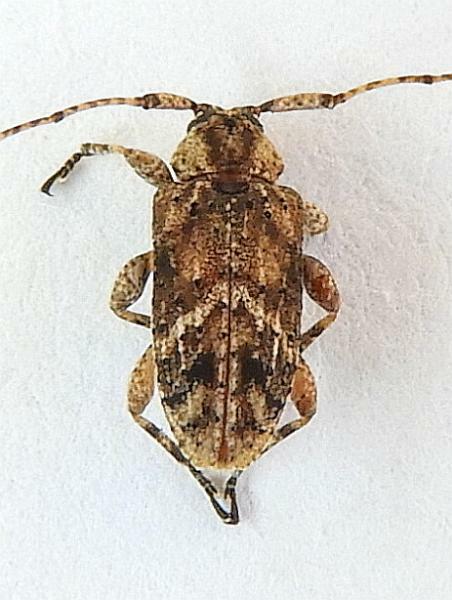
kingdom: Animalia
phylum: Arthropoda
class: Insecta
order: Coleoptera
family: Cerambycidae
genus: Styloleptus
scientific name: Styloleptus biustus
